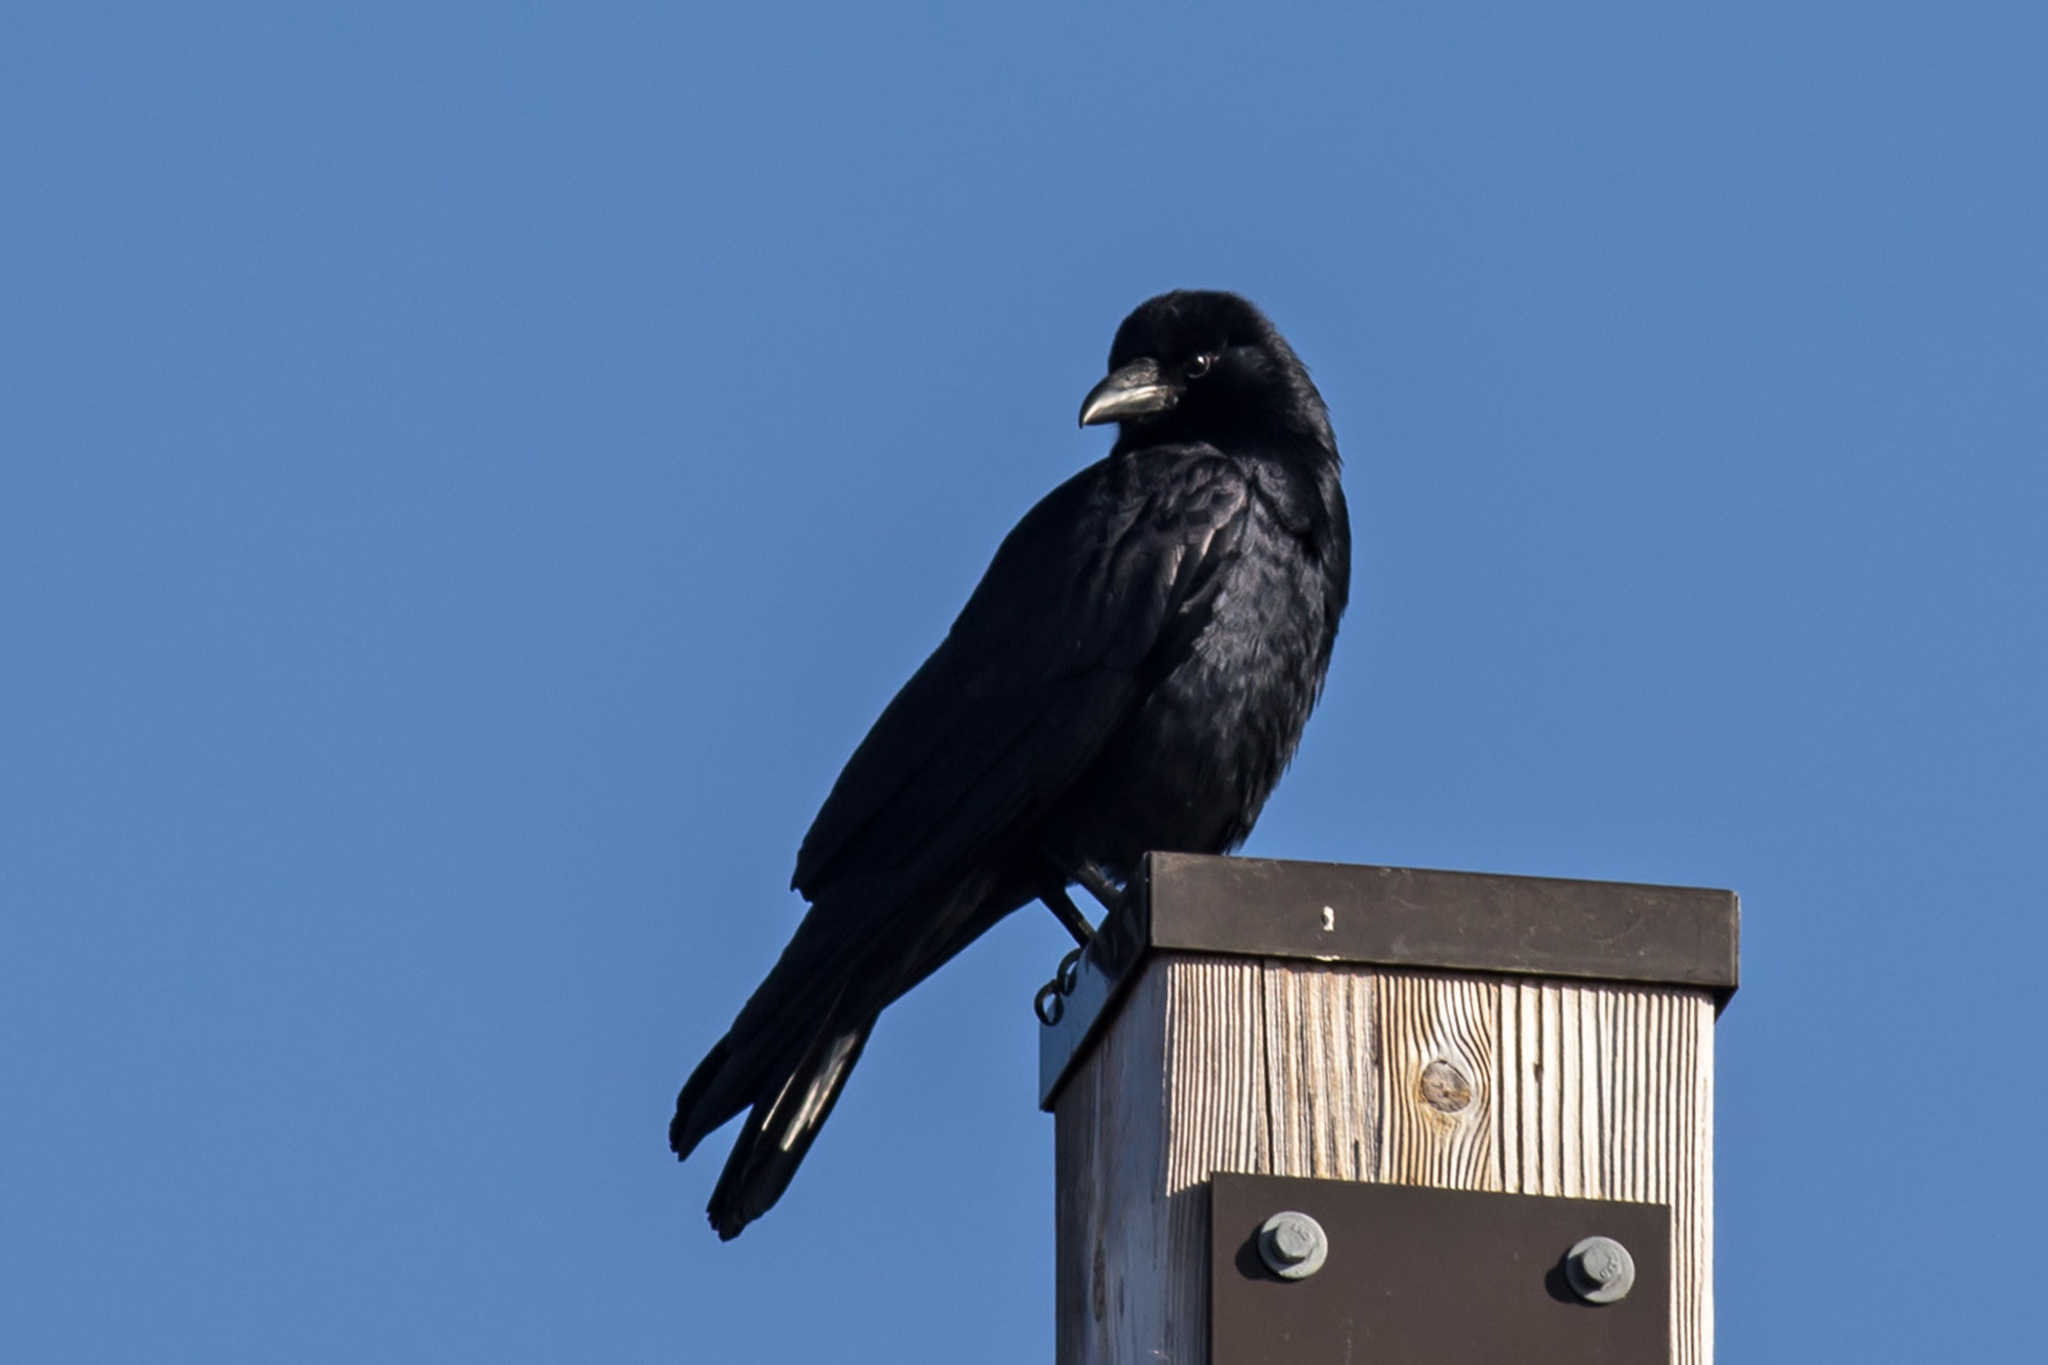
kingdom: Animalia
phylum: Chordata
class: Aves
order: Passeriformes
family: Corvidae
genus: Corvus
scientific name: Corvus ossifragus
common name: Fish crow
